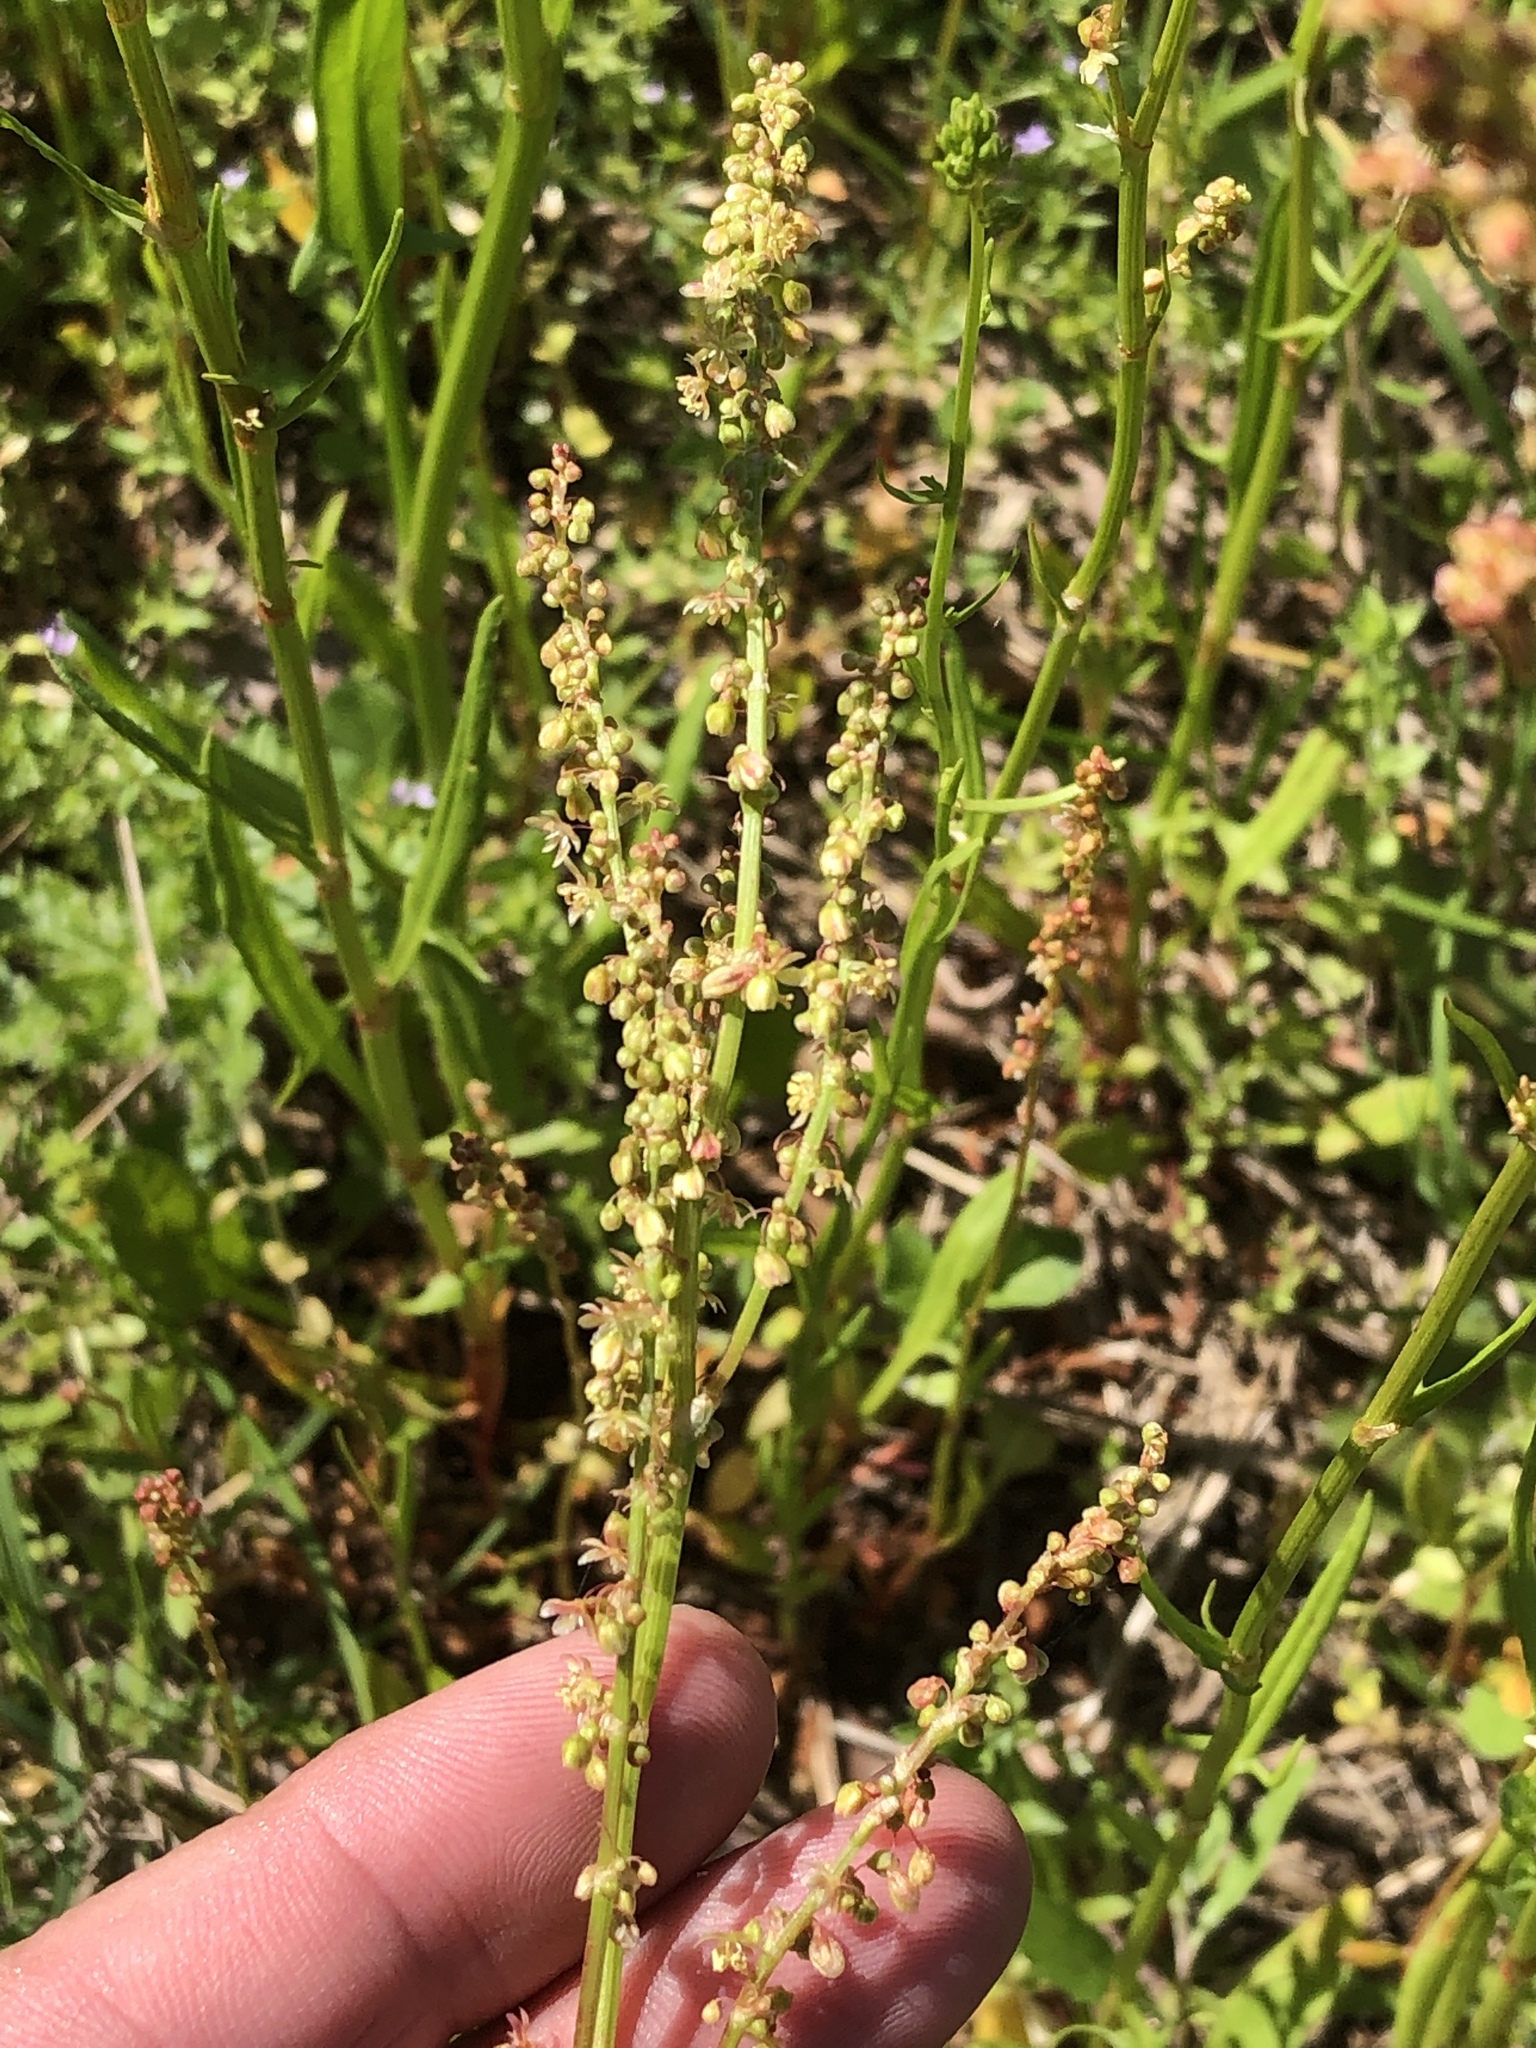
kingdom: Plantae
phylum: Tracheophyta
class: Magnoliopsida
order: Caryophyllales
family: Polygonaceae
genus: Rumex
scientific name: Rumex hastatulus
